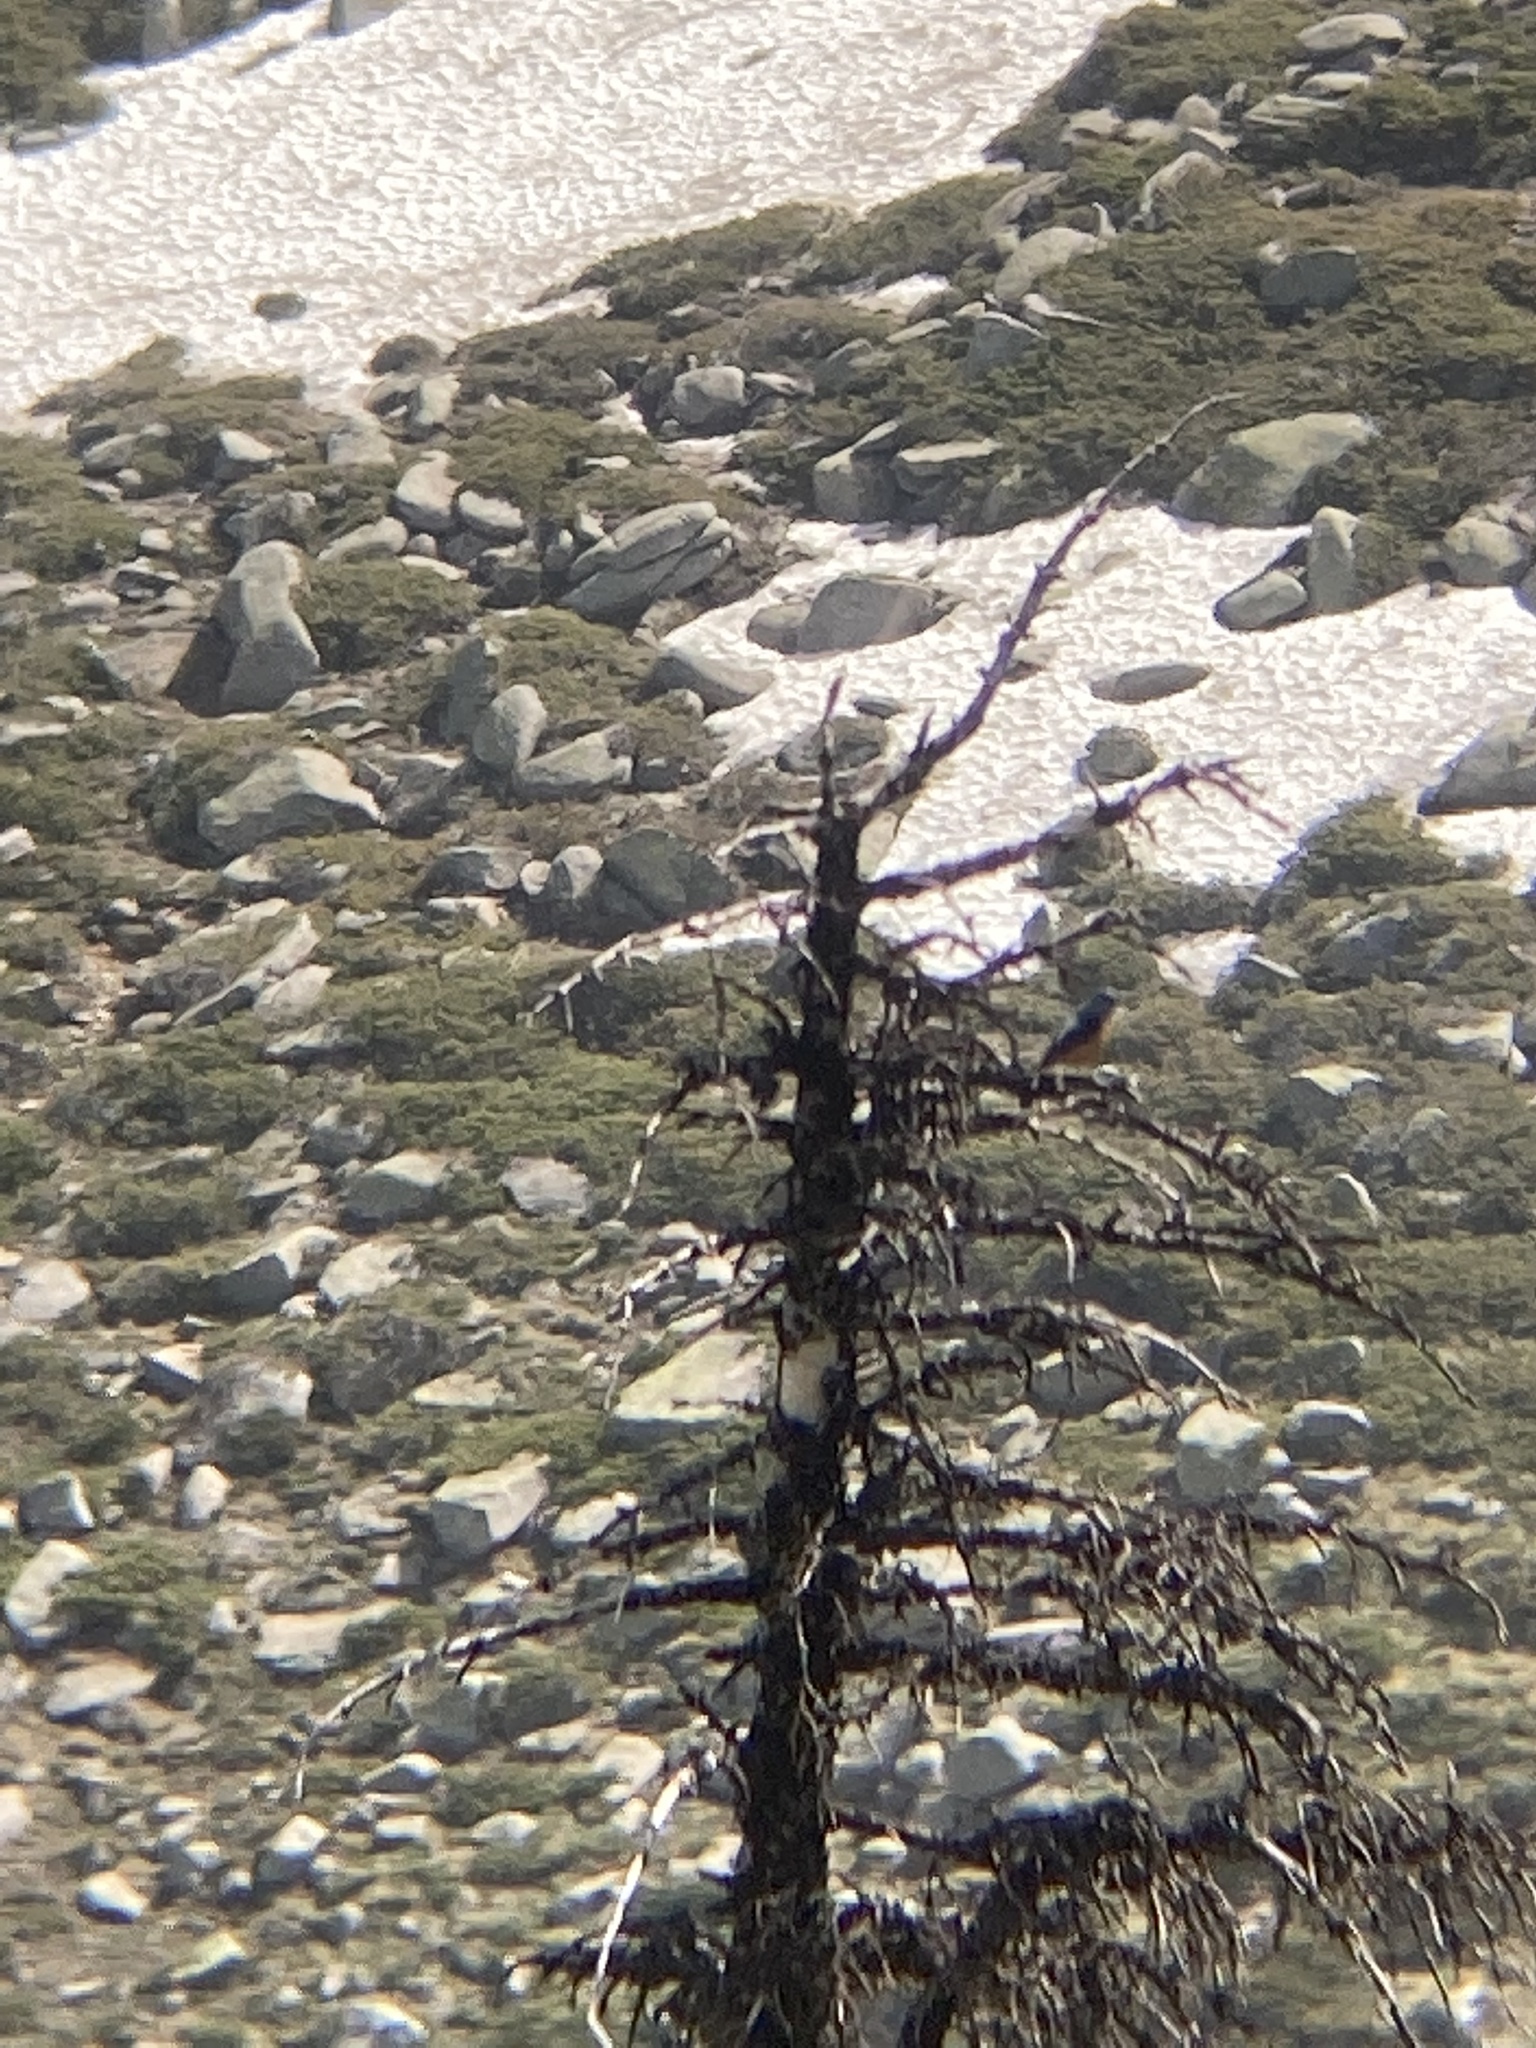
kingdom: Animalia
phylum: Chordata
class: Aves
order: Passeriformes
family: Muscicapidae
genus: Monticola
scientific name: Monticola saxatilis
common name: Rufous-tailed rock thrush
